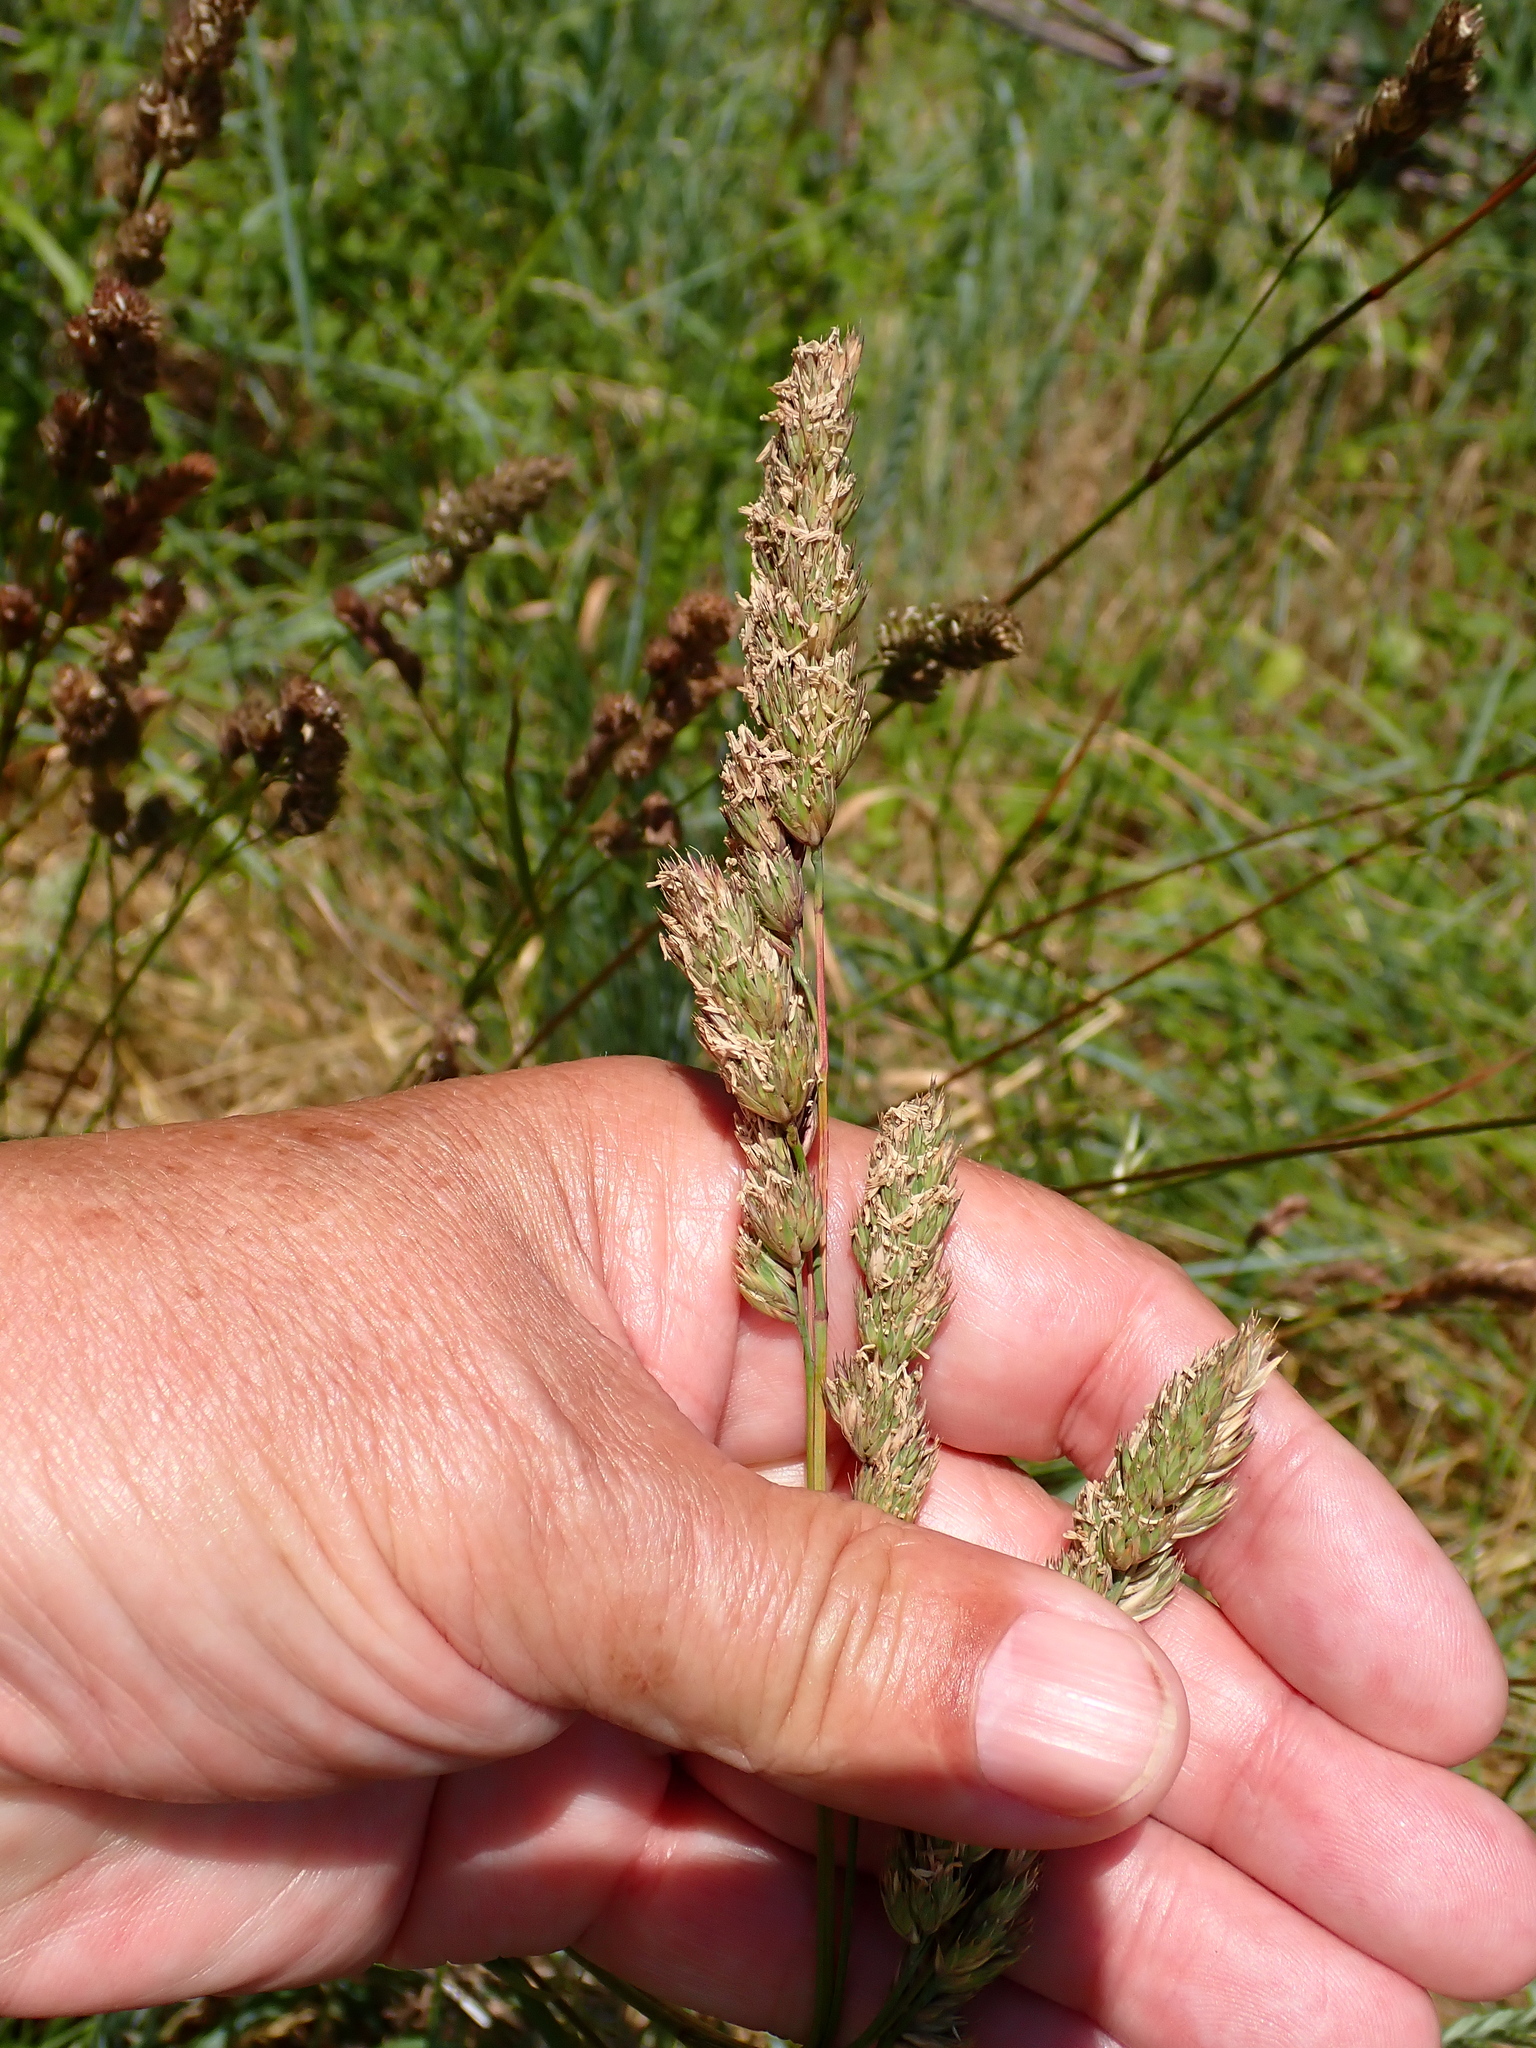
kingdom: Plantae
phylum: Tracheophyta
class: Liliopsida
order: Poales
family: Poaceae
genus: Dactylis
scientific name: Dactylis glomerata
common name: Orchardgrass
